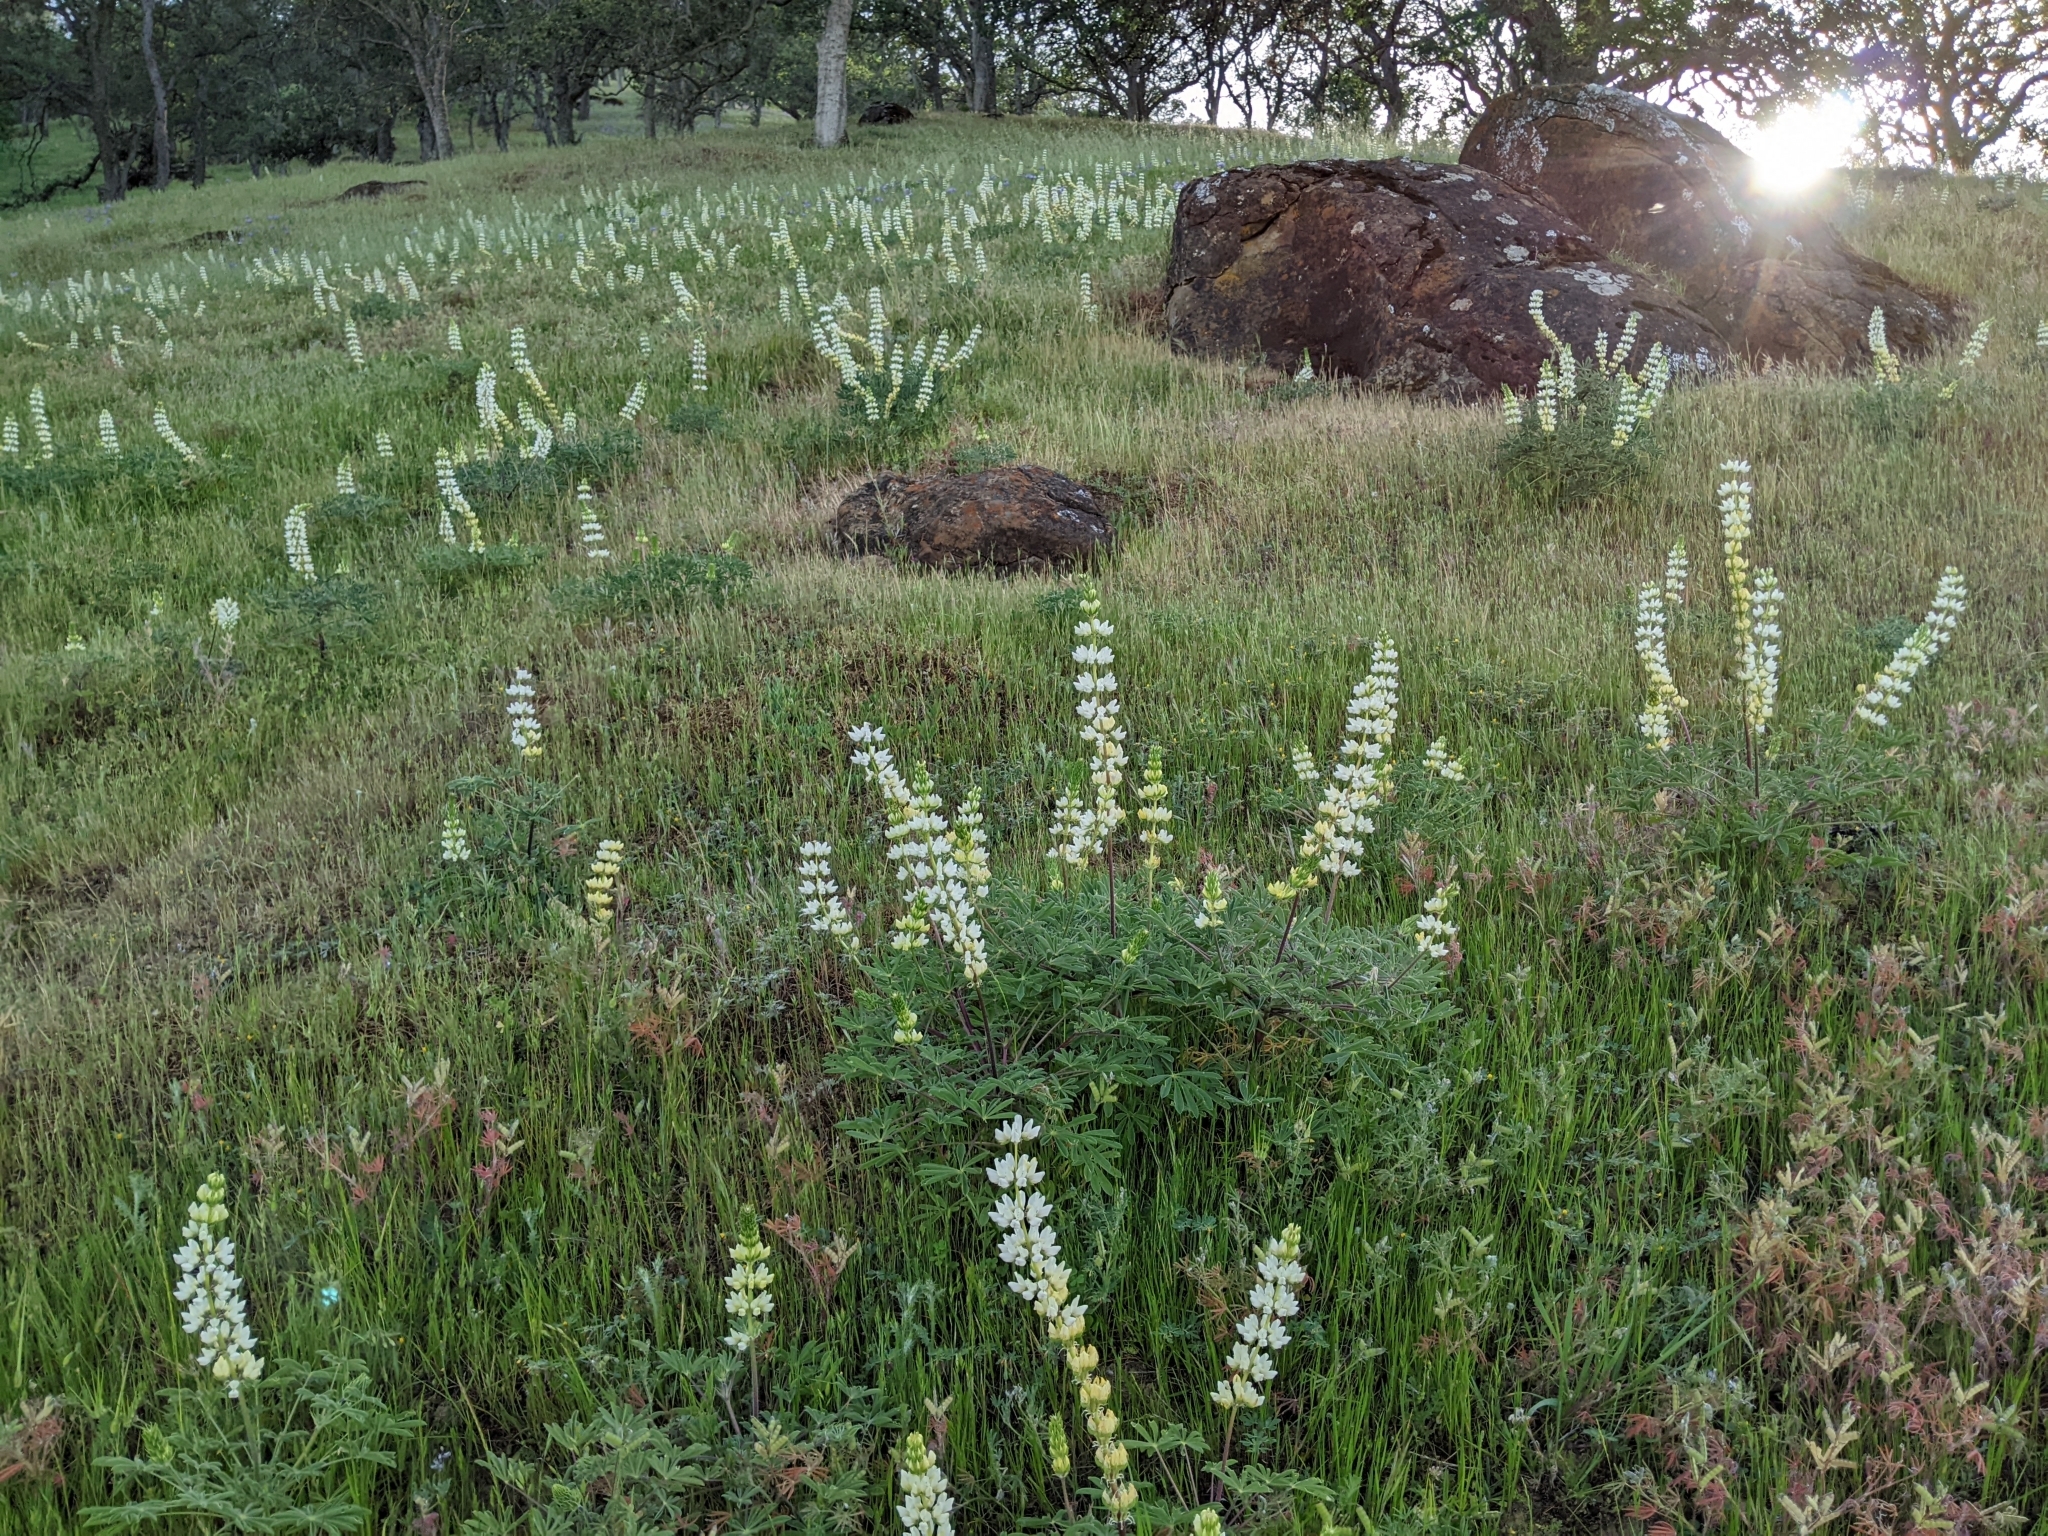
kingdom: Plantae
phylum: Tracheophyta
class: Magnoliopsida
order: Fabales
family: Fabaceae
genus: Lupinus
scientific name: Lupinus microcarpus
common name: Chick lupine
